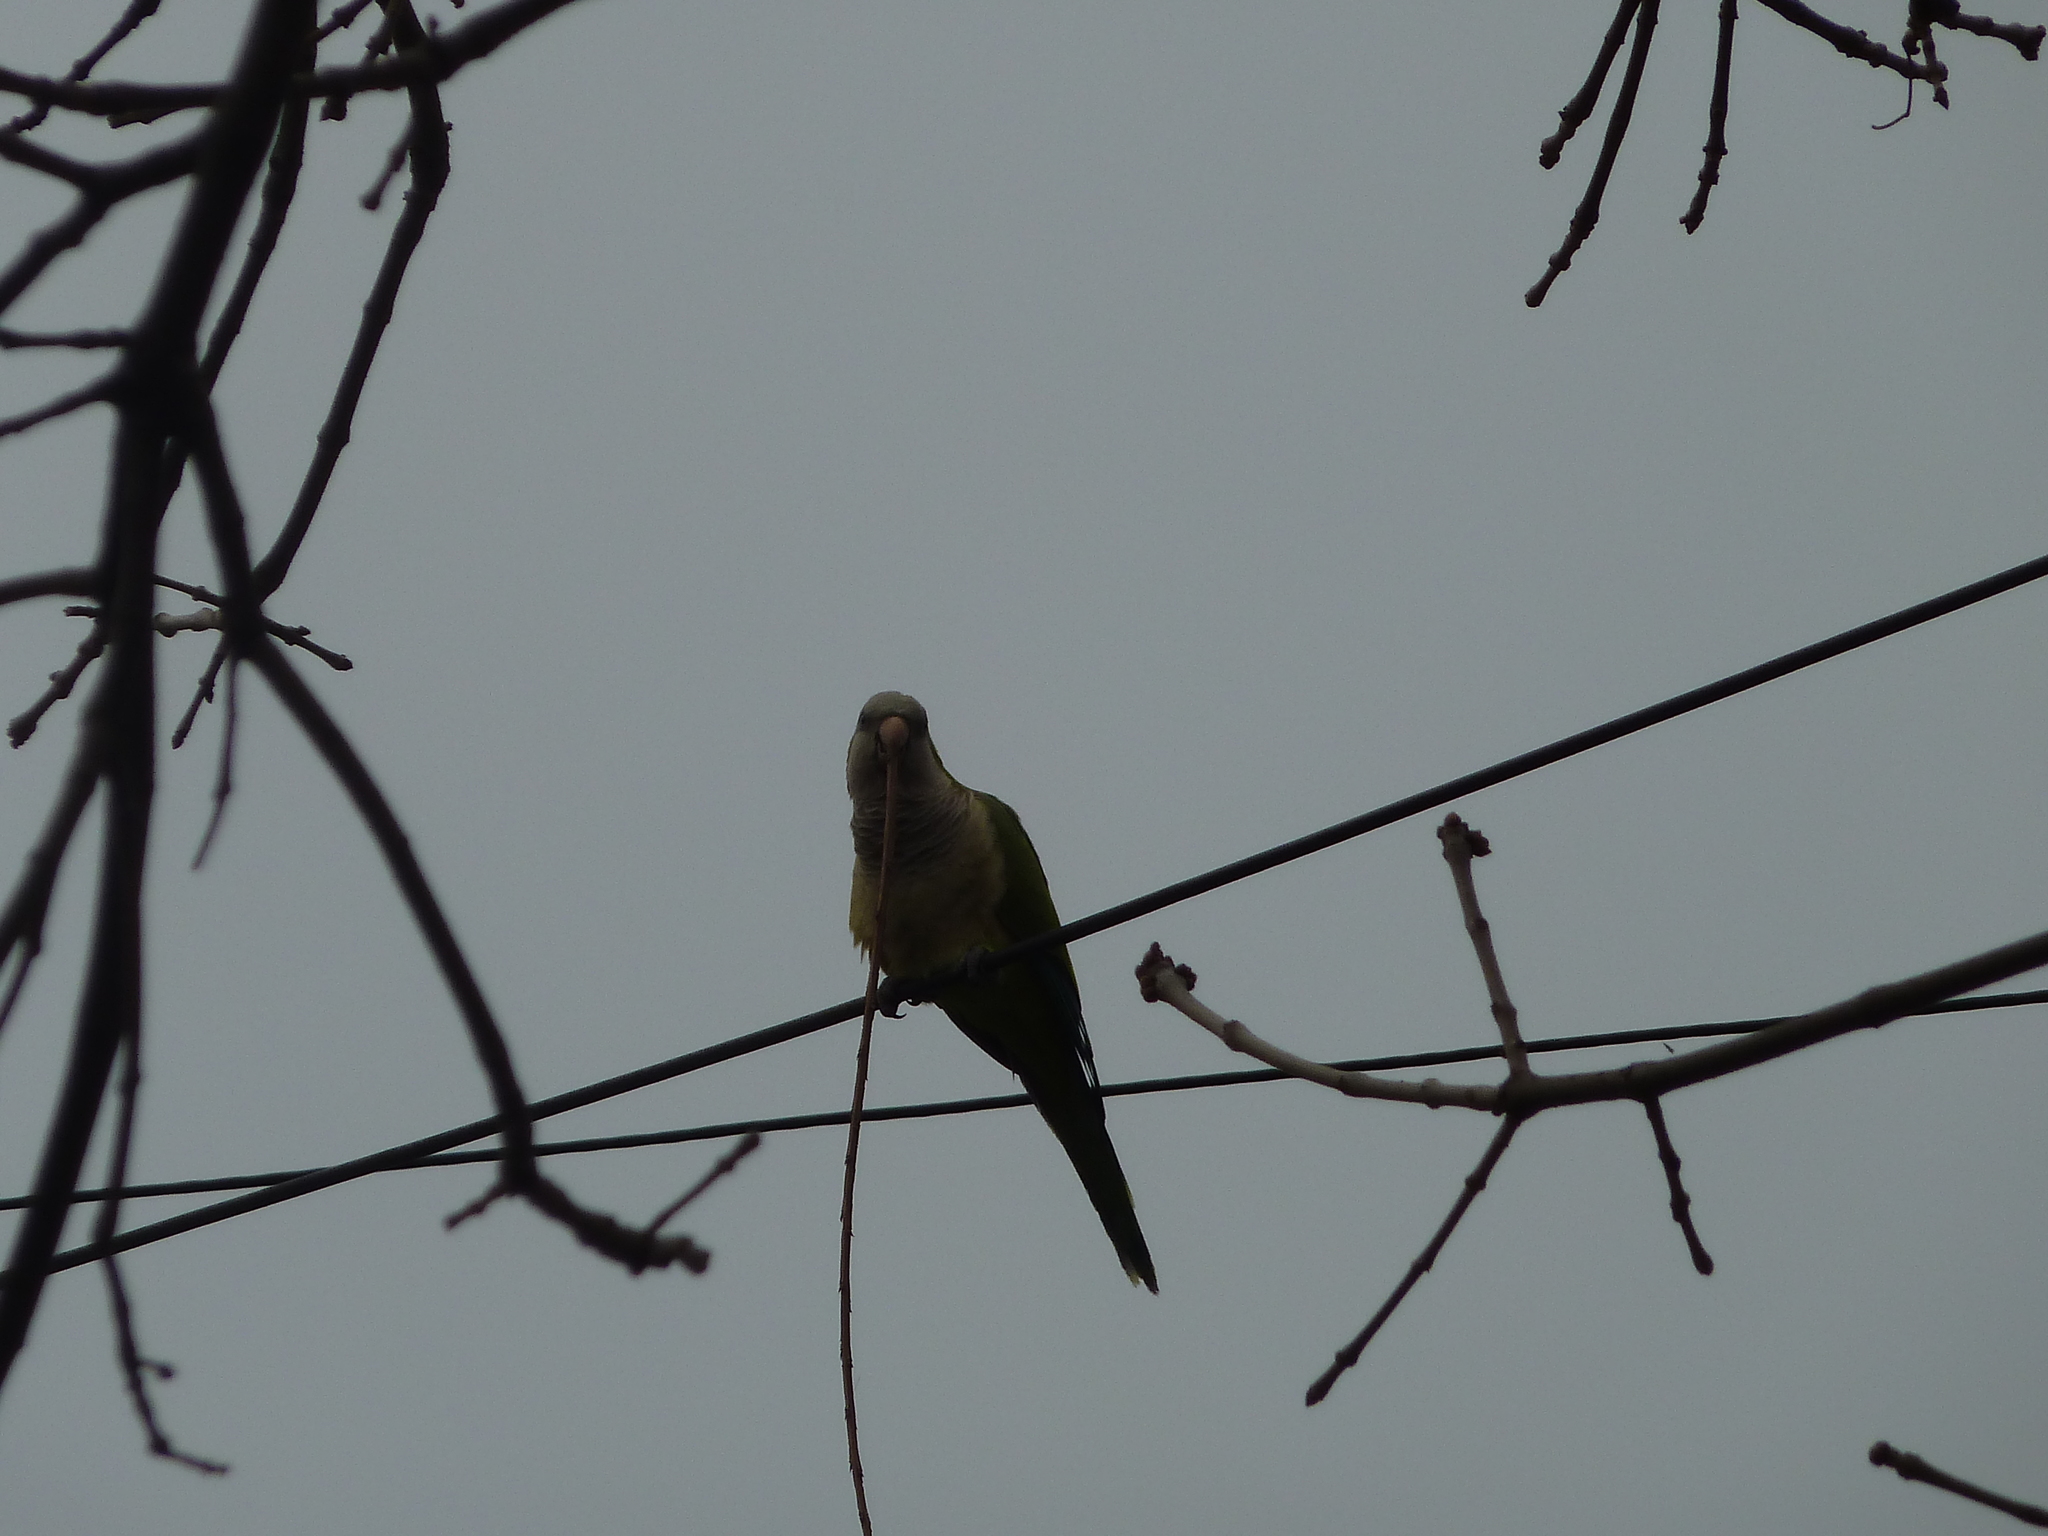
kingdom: Animalia
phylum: Chordata
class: Aves
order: Psittaciformes
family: Psittacidae
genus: Myiopsitta
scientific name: Myiopsitta monachus
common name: Monk parakeet
